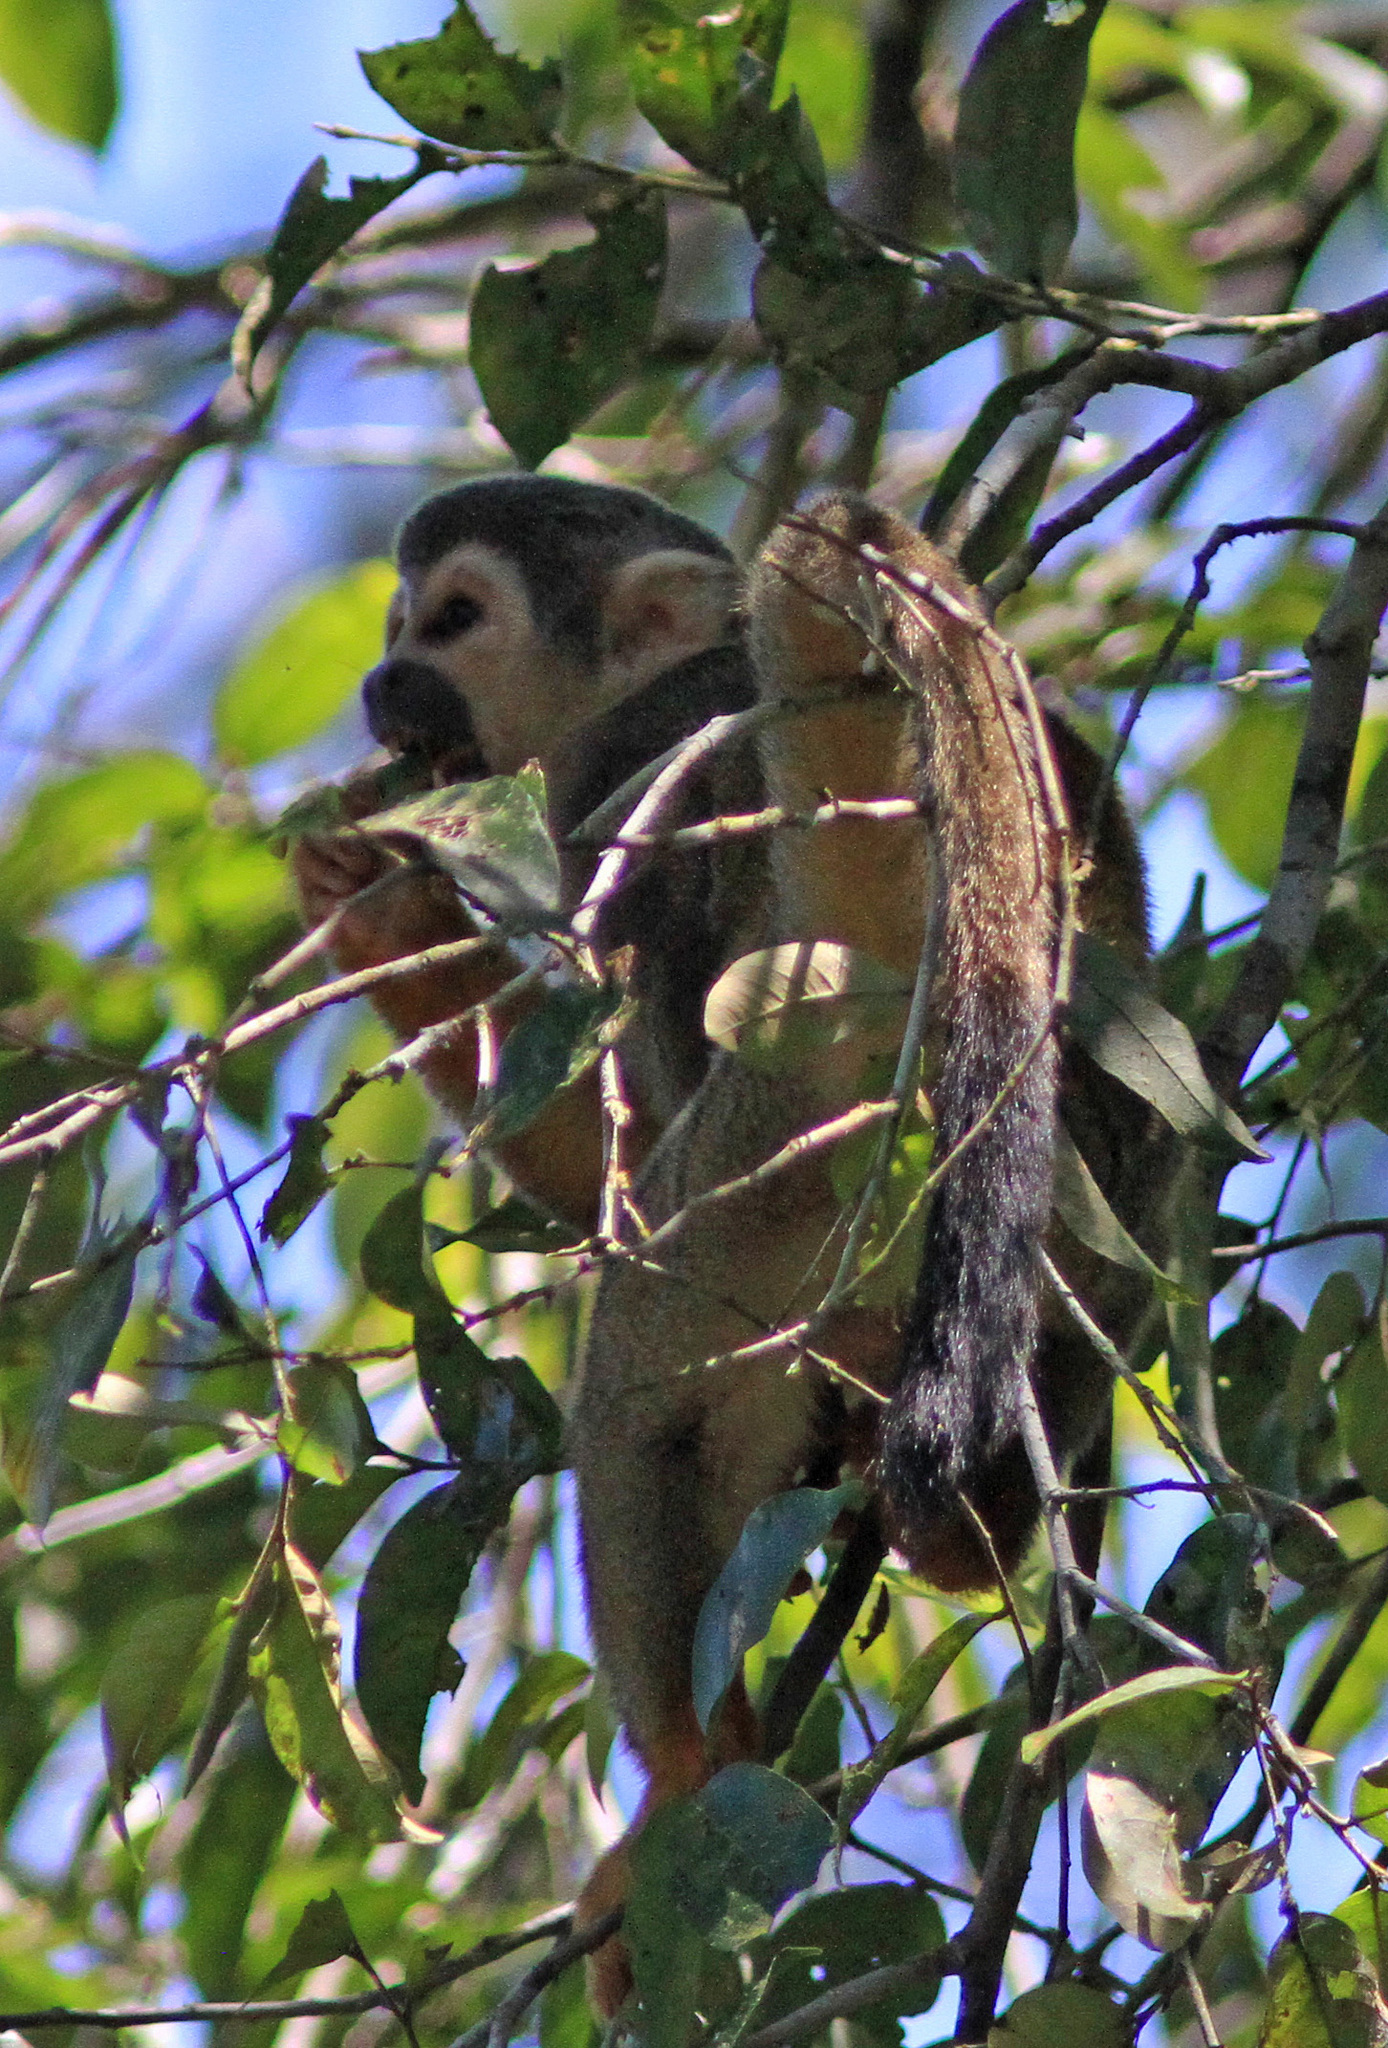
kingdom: Animalia
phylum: Chordata
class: Mammalia
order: Primates
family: Cebidae
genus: Saimiri
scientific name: Saimiri cassiquiarensis
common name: Humboldt’s squirrel monkey
